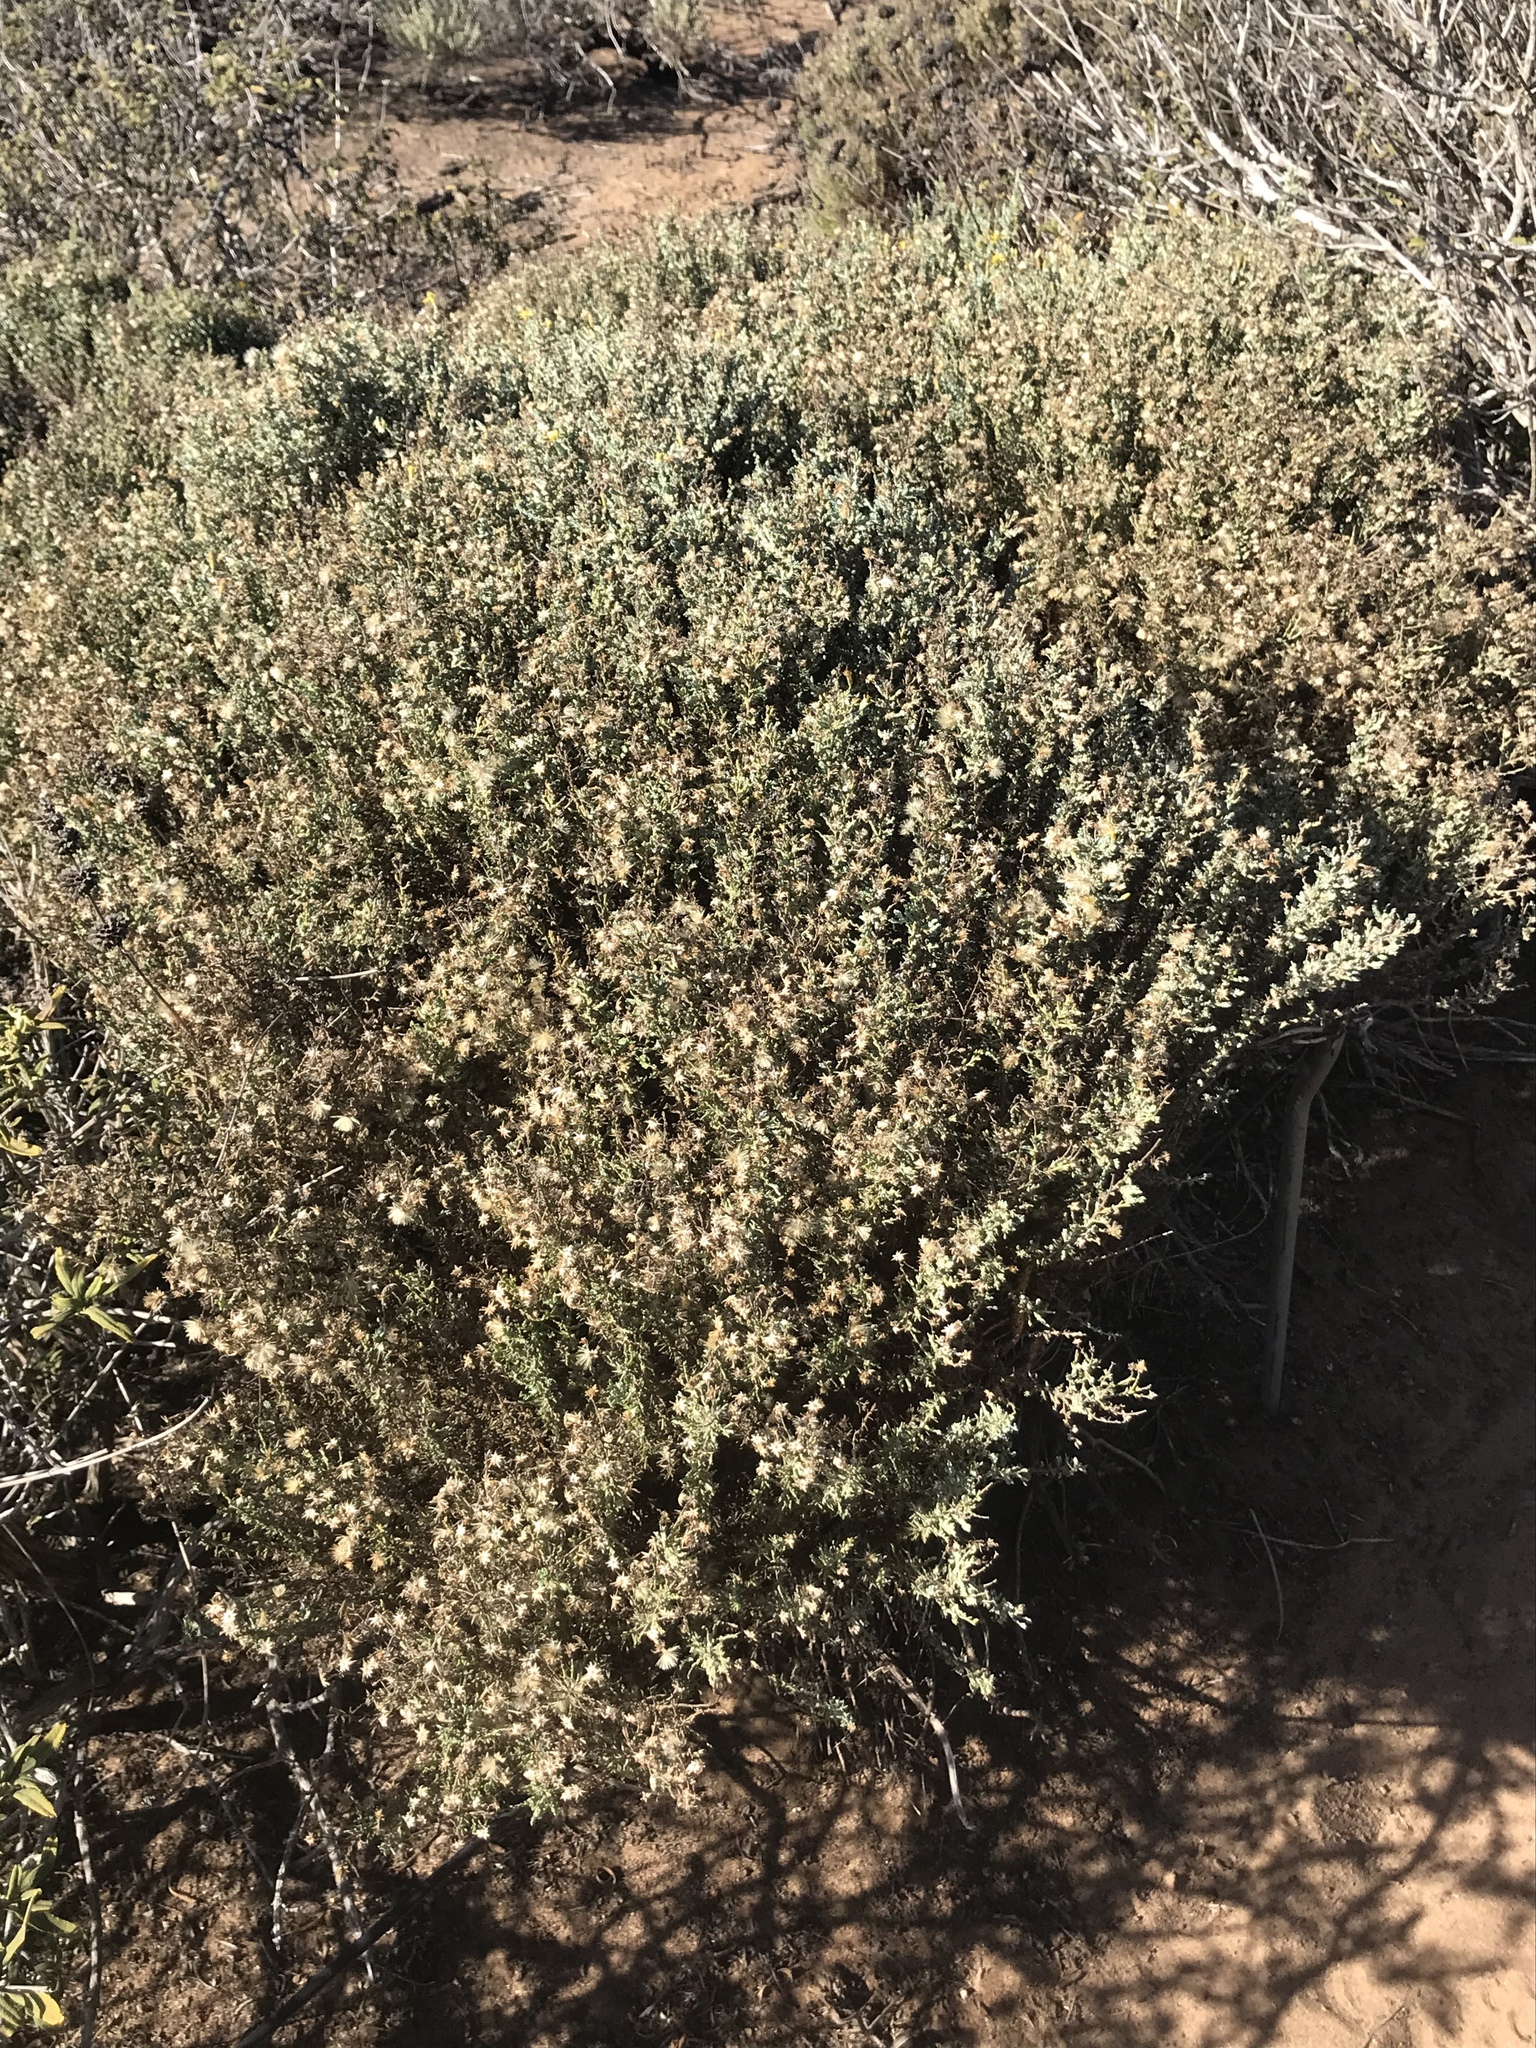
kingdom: Plantae
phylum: Tracheophyta
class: Magnoliopsida
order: Asterales
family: Asteraceae
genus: Ericameria
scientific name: Ericameria ericoides
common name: California goldenbush
